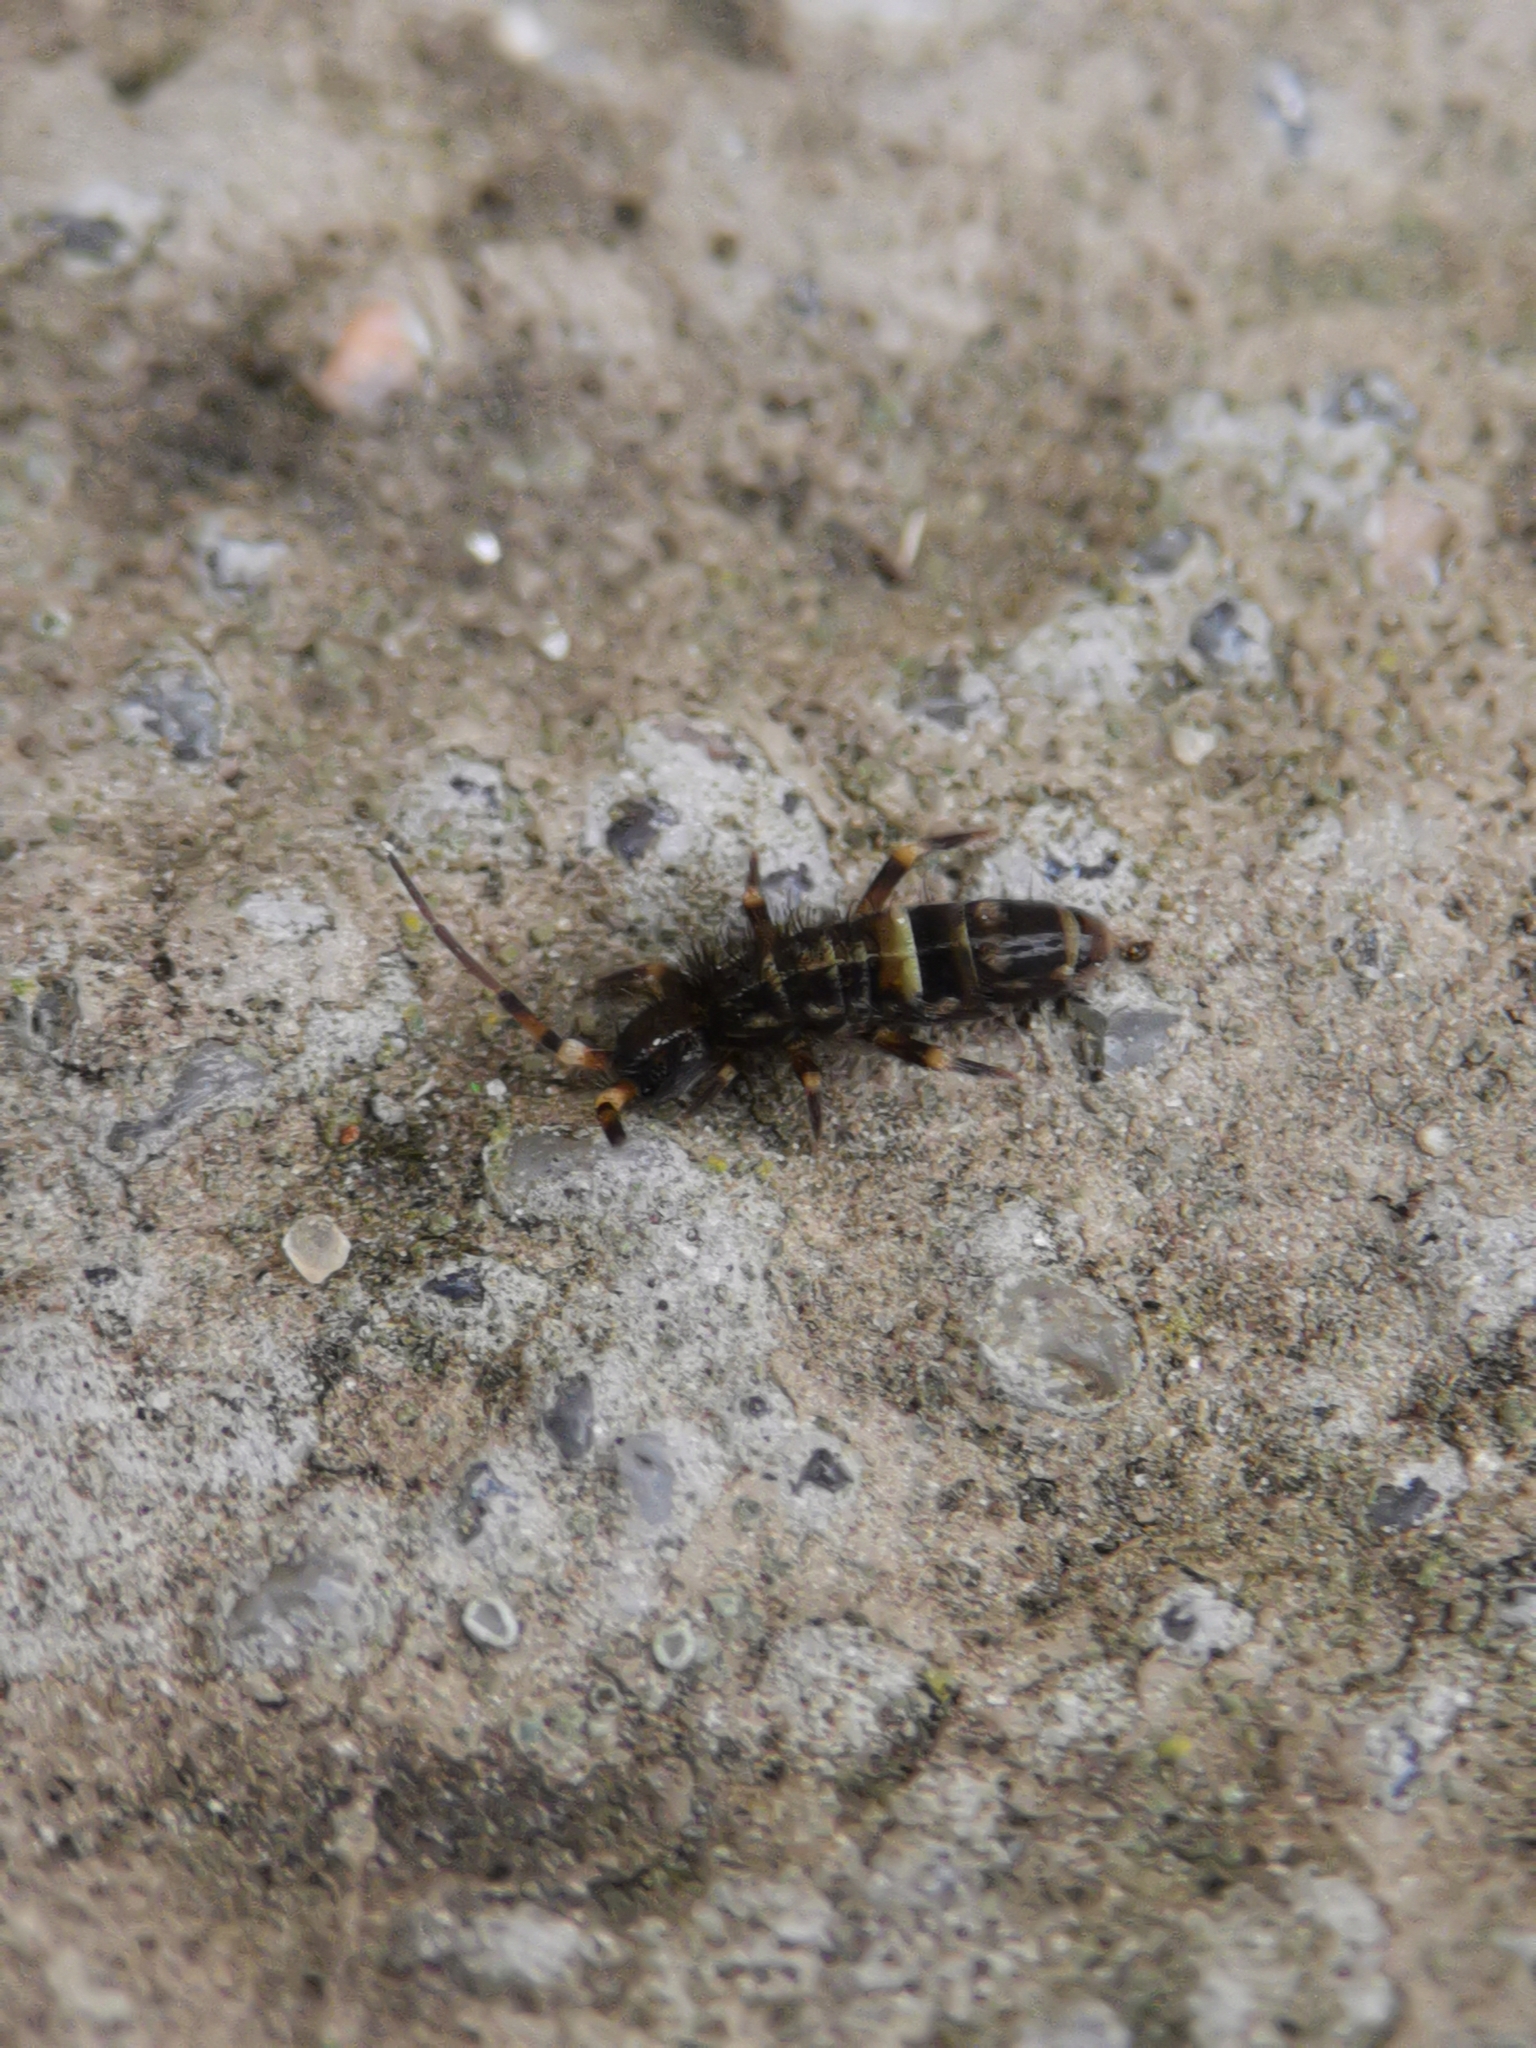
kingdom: Animalia
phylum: Arthropoda
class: Collembola
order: Entomobryomorpha
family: Orchesellidae
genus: Orchesella
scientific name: Orchesella cincta
